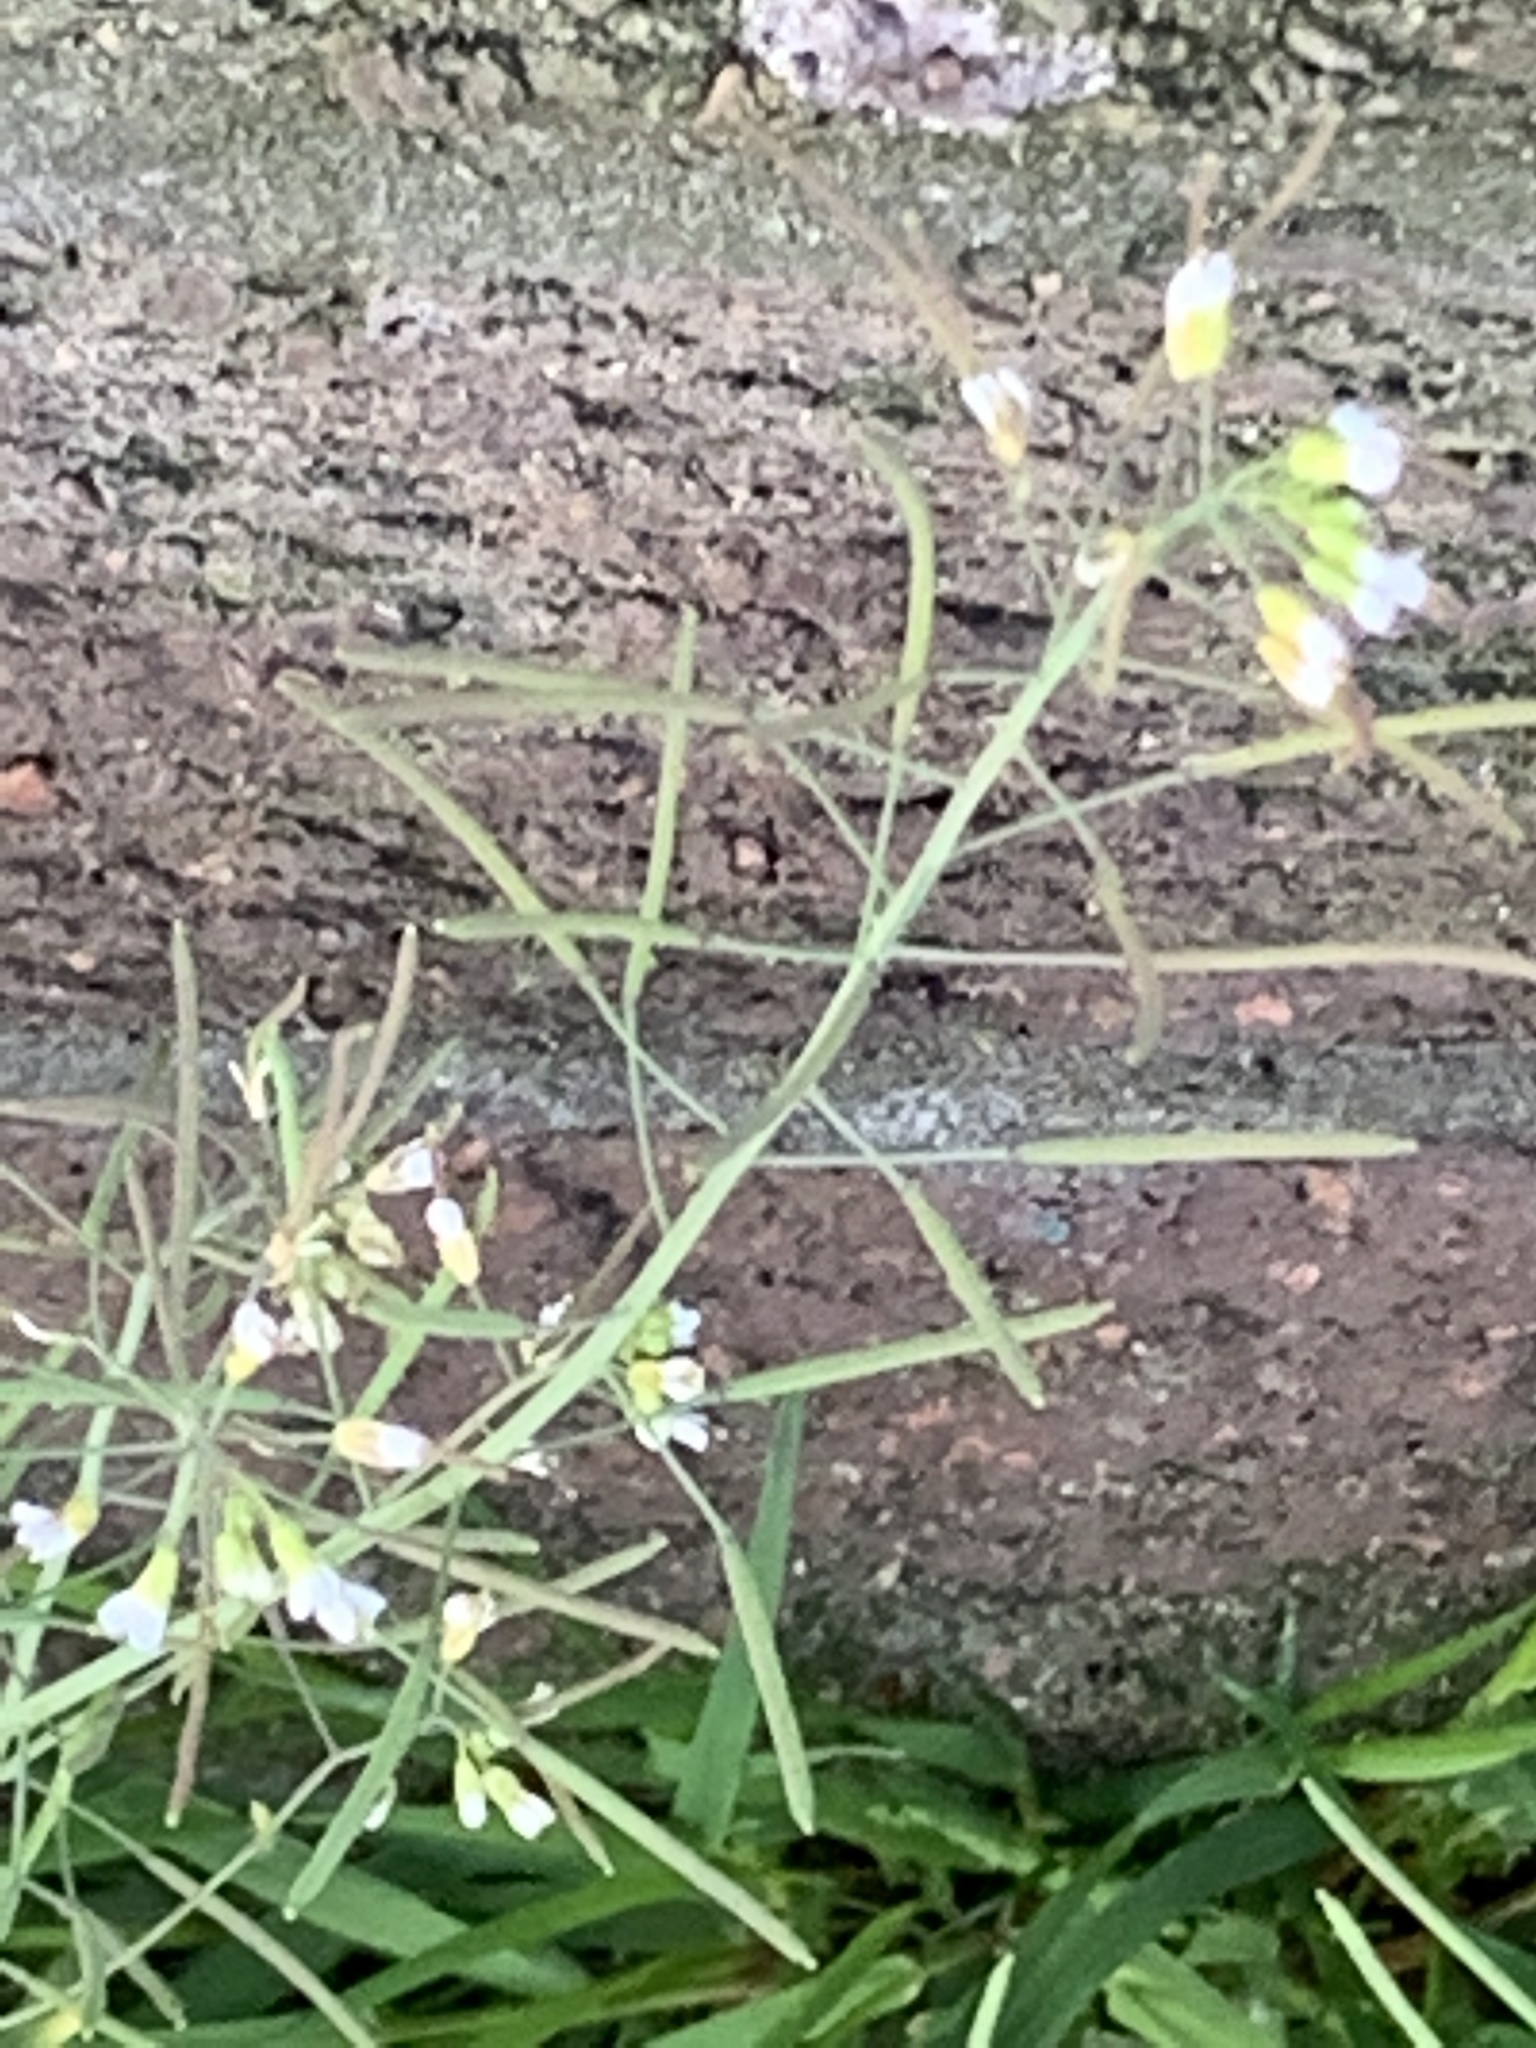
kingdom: Plantae
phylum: Tracheophyta
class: Magnoliopsida
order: Brassicales
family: Brassicaceae
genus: Arabidopsis
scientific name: Arabidopsis thaliana
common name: Thale cress
